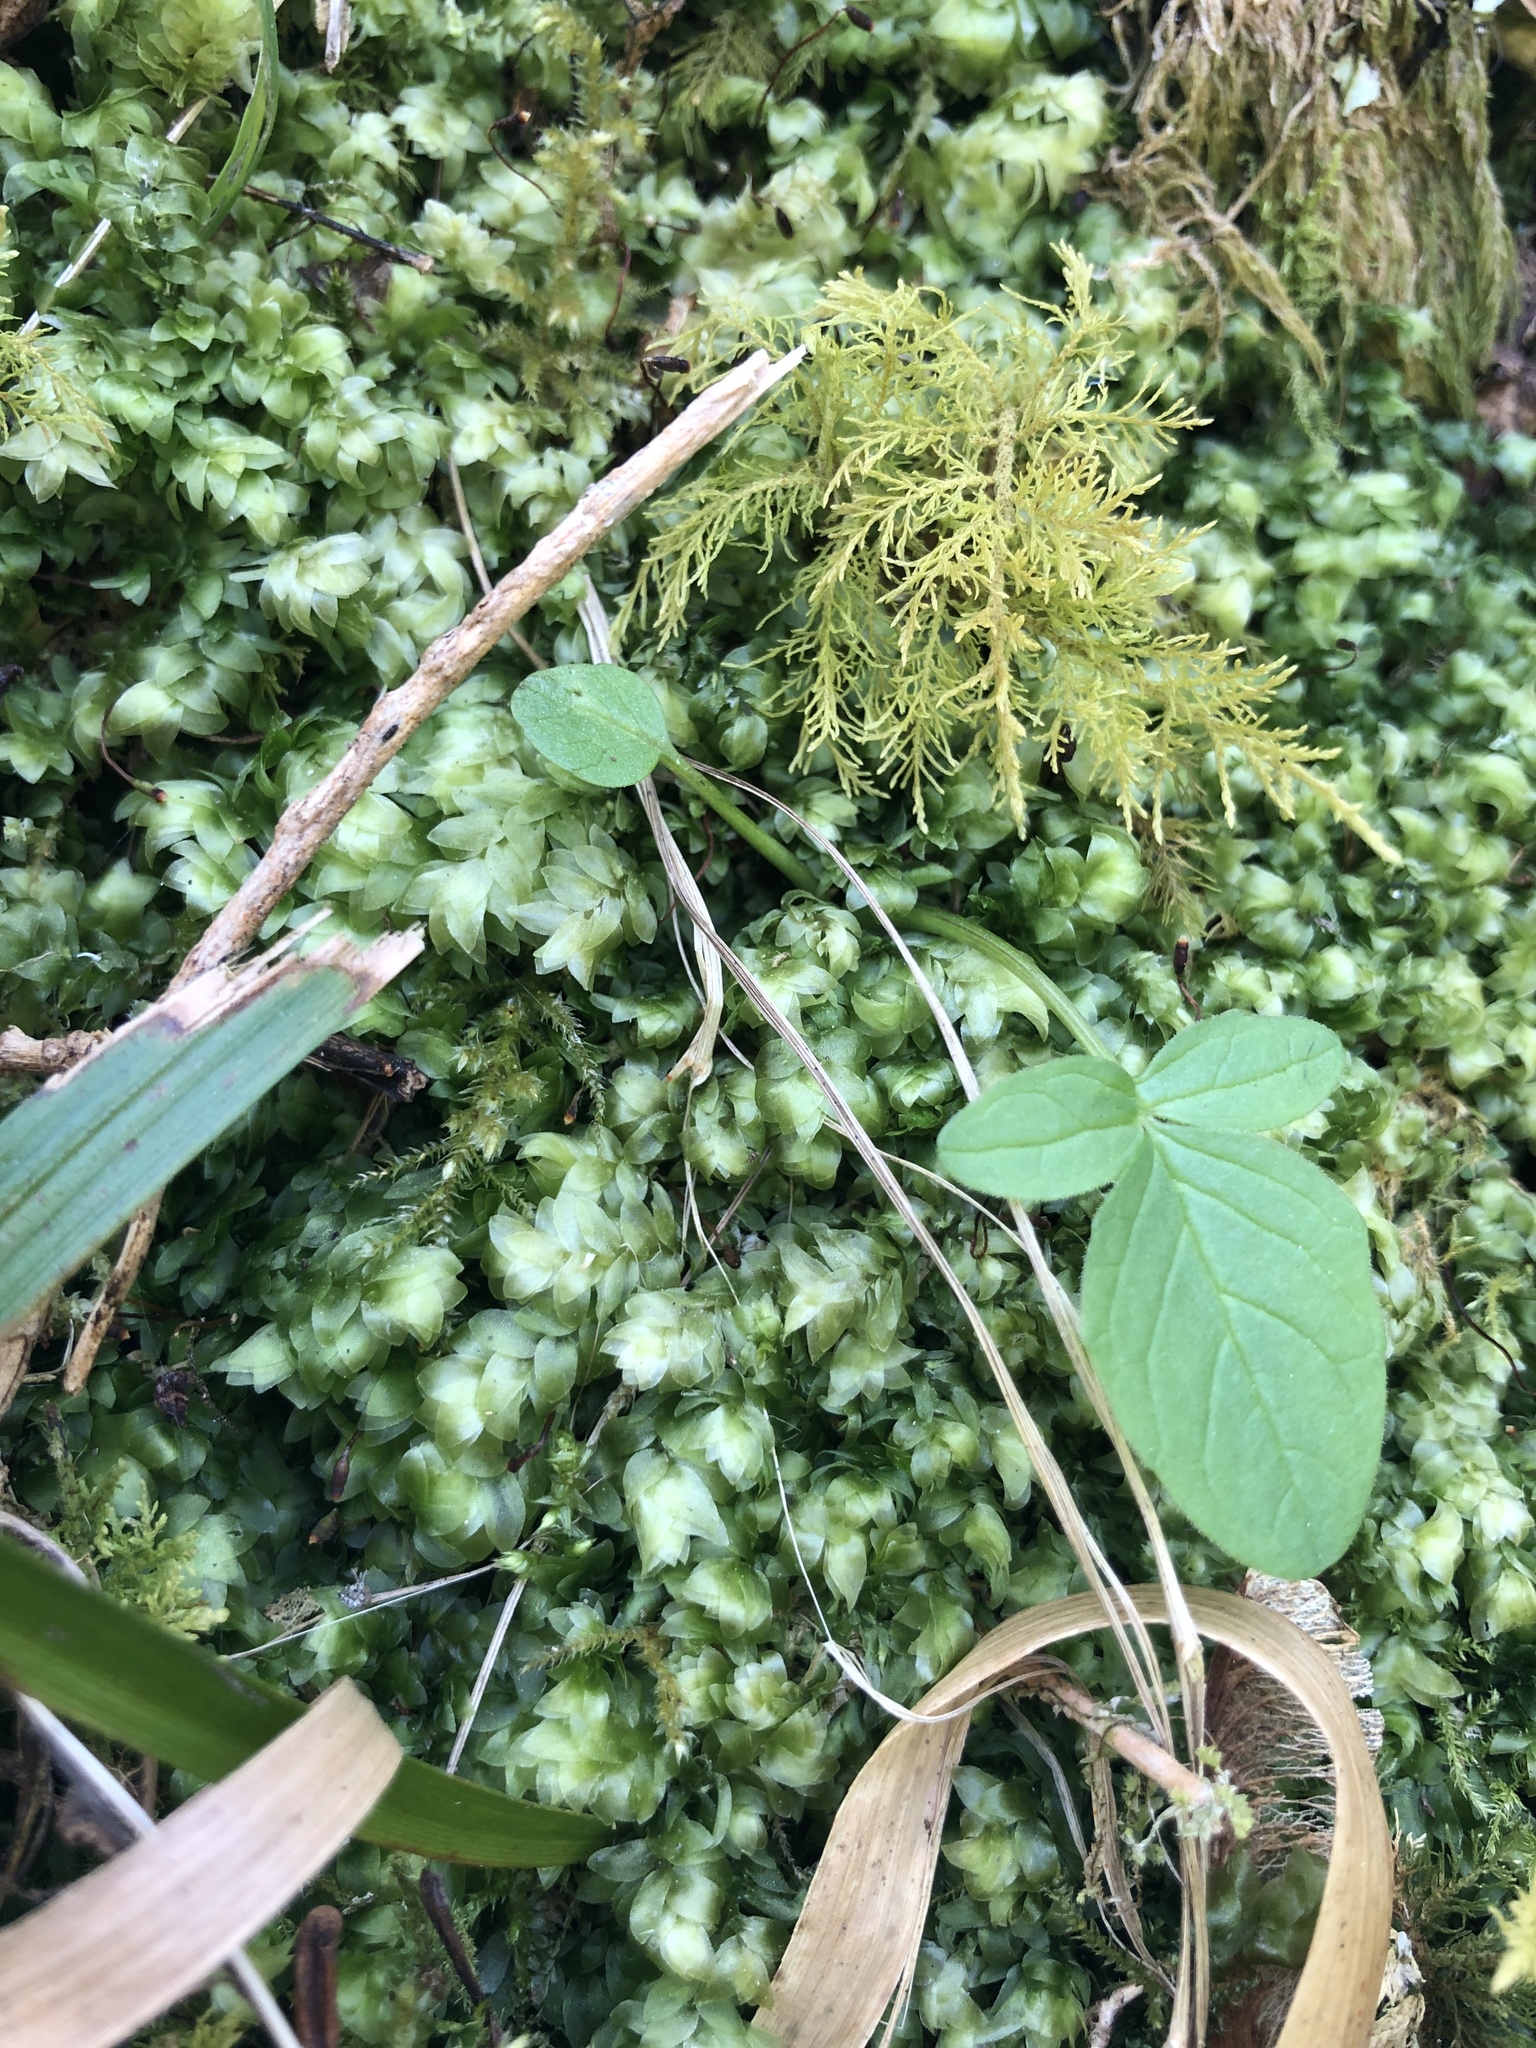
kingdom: Plantae
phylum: Bryophyta
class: Bryopsida
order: Hookeriales
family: Hookeriaceae
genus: Hookeria
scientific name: Hookeria lucens
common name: Shining hookeria
